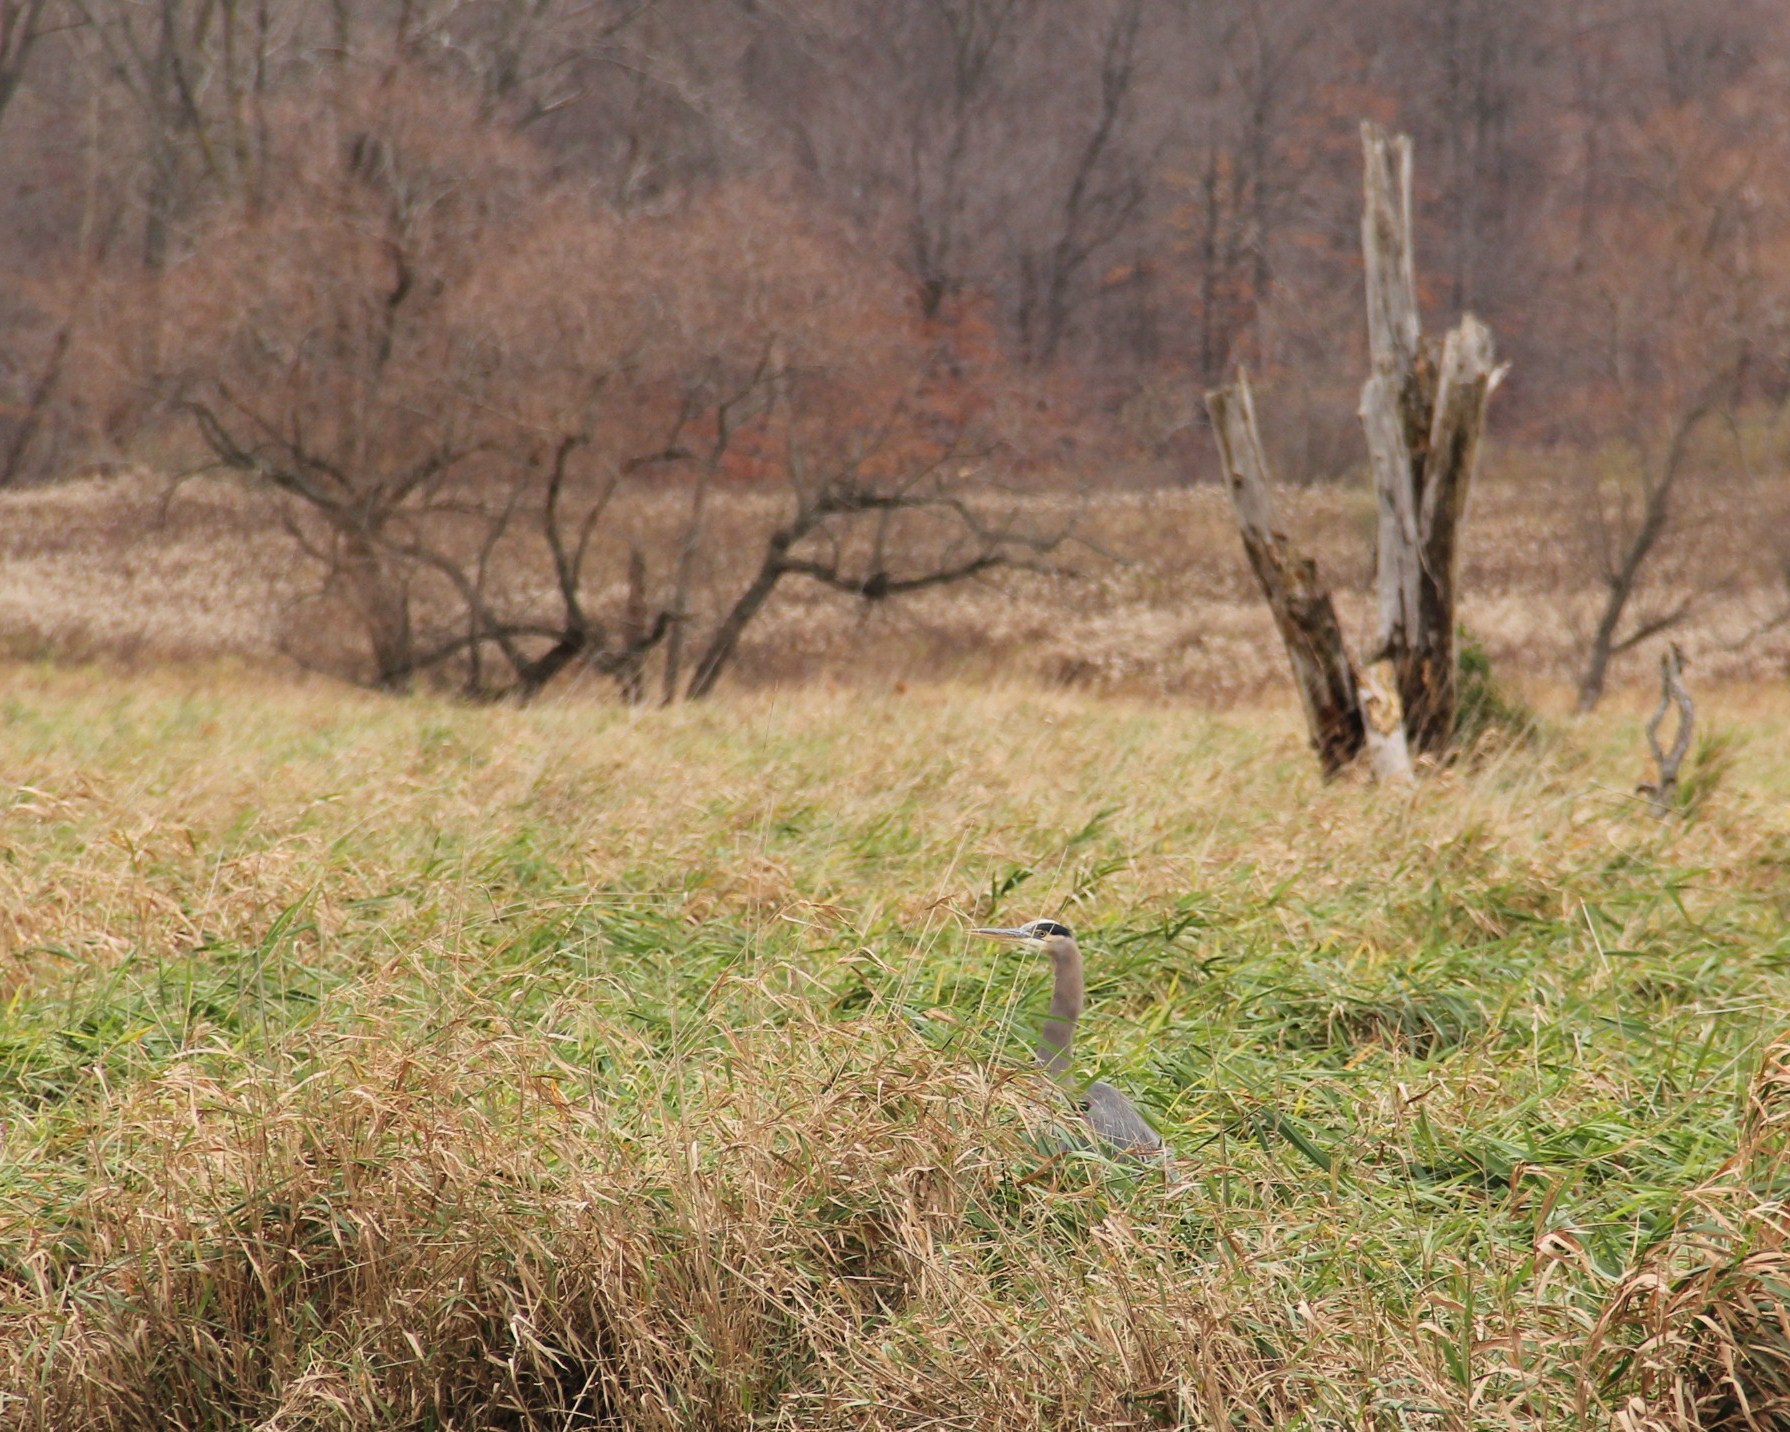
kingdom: Animalia
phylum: Chordata
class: Aves
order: Pelecaniformes
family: Ardeidae
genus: Ardea
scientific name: Ardea herodias
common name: Great blue heron
